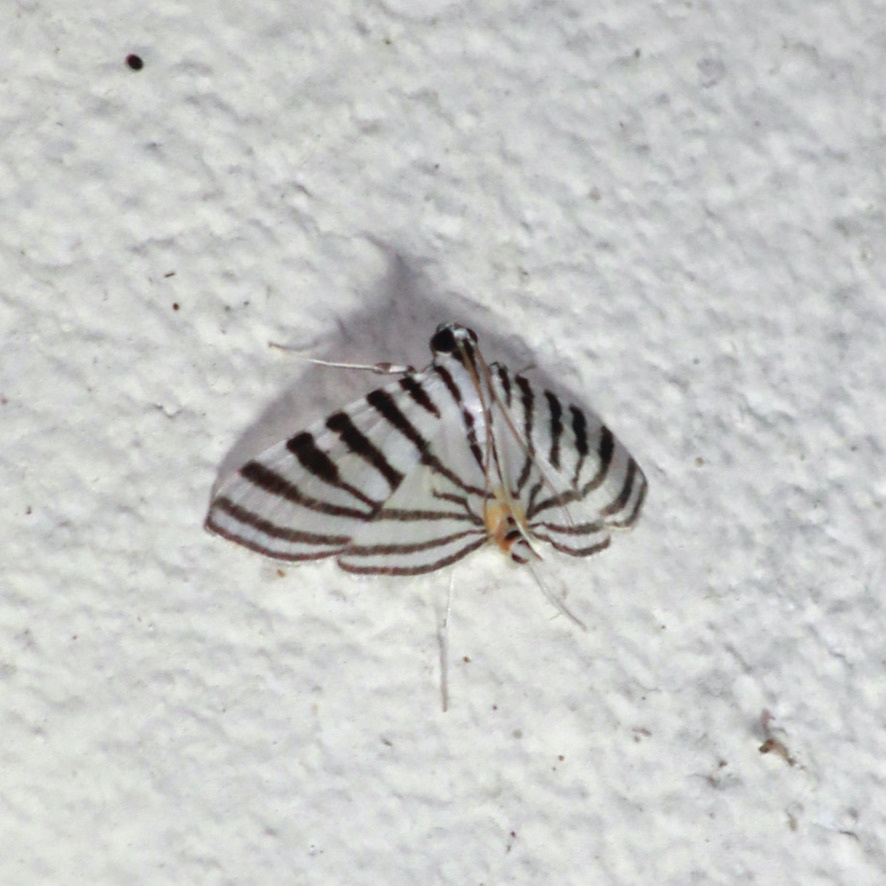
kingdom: Animalia
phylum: Arthropoda
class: Insecta
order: Lepidoptera
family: Crambidae
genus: Conchylodes
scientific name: Conchylodes zebra
